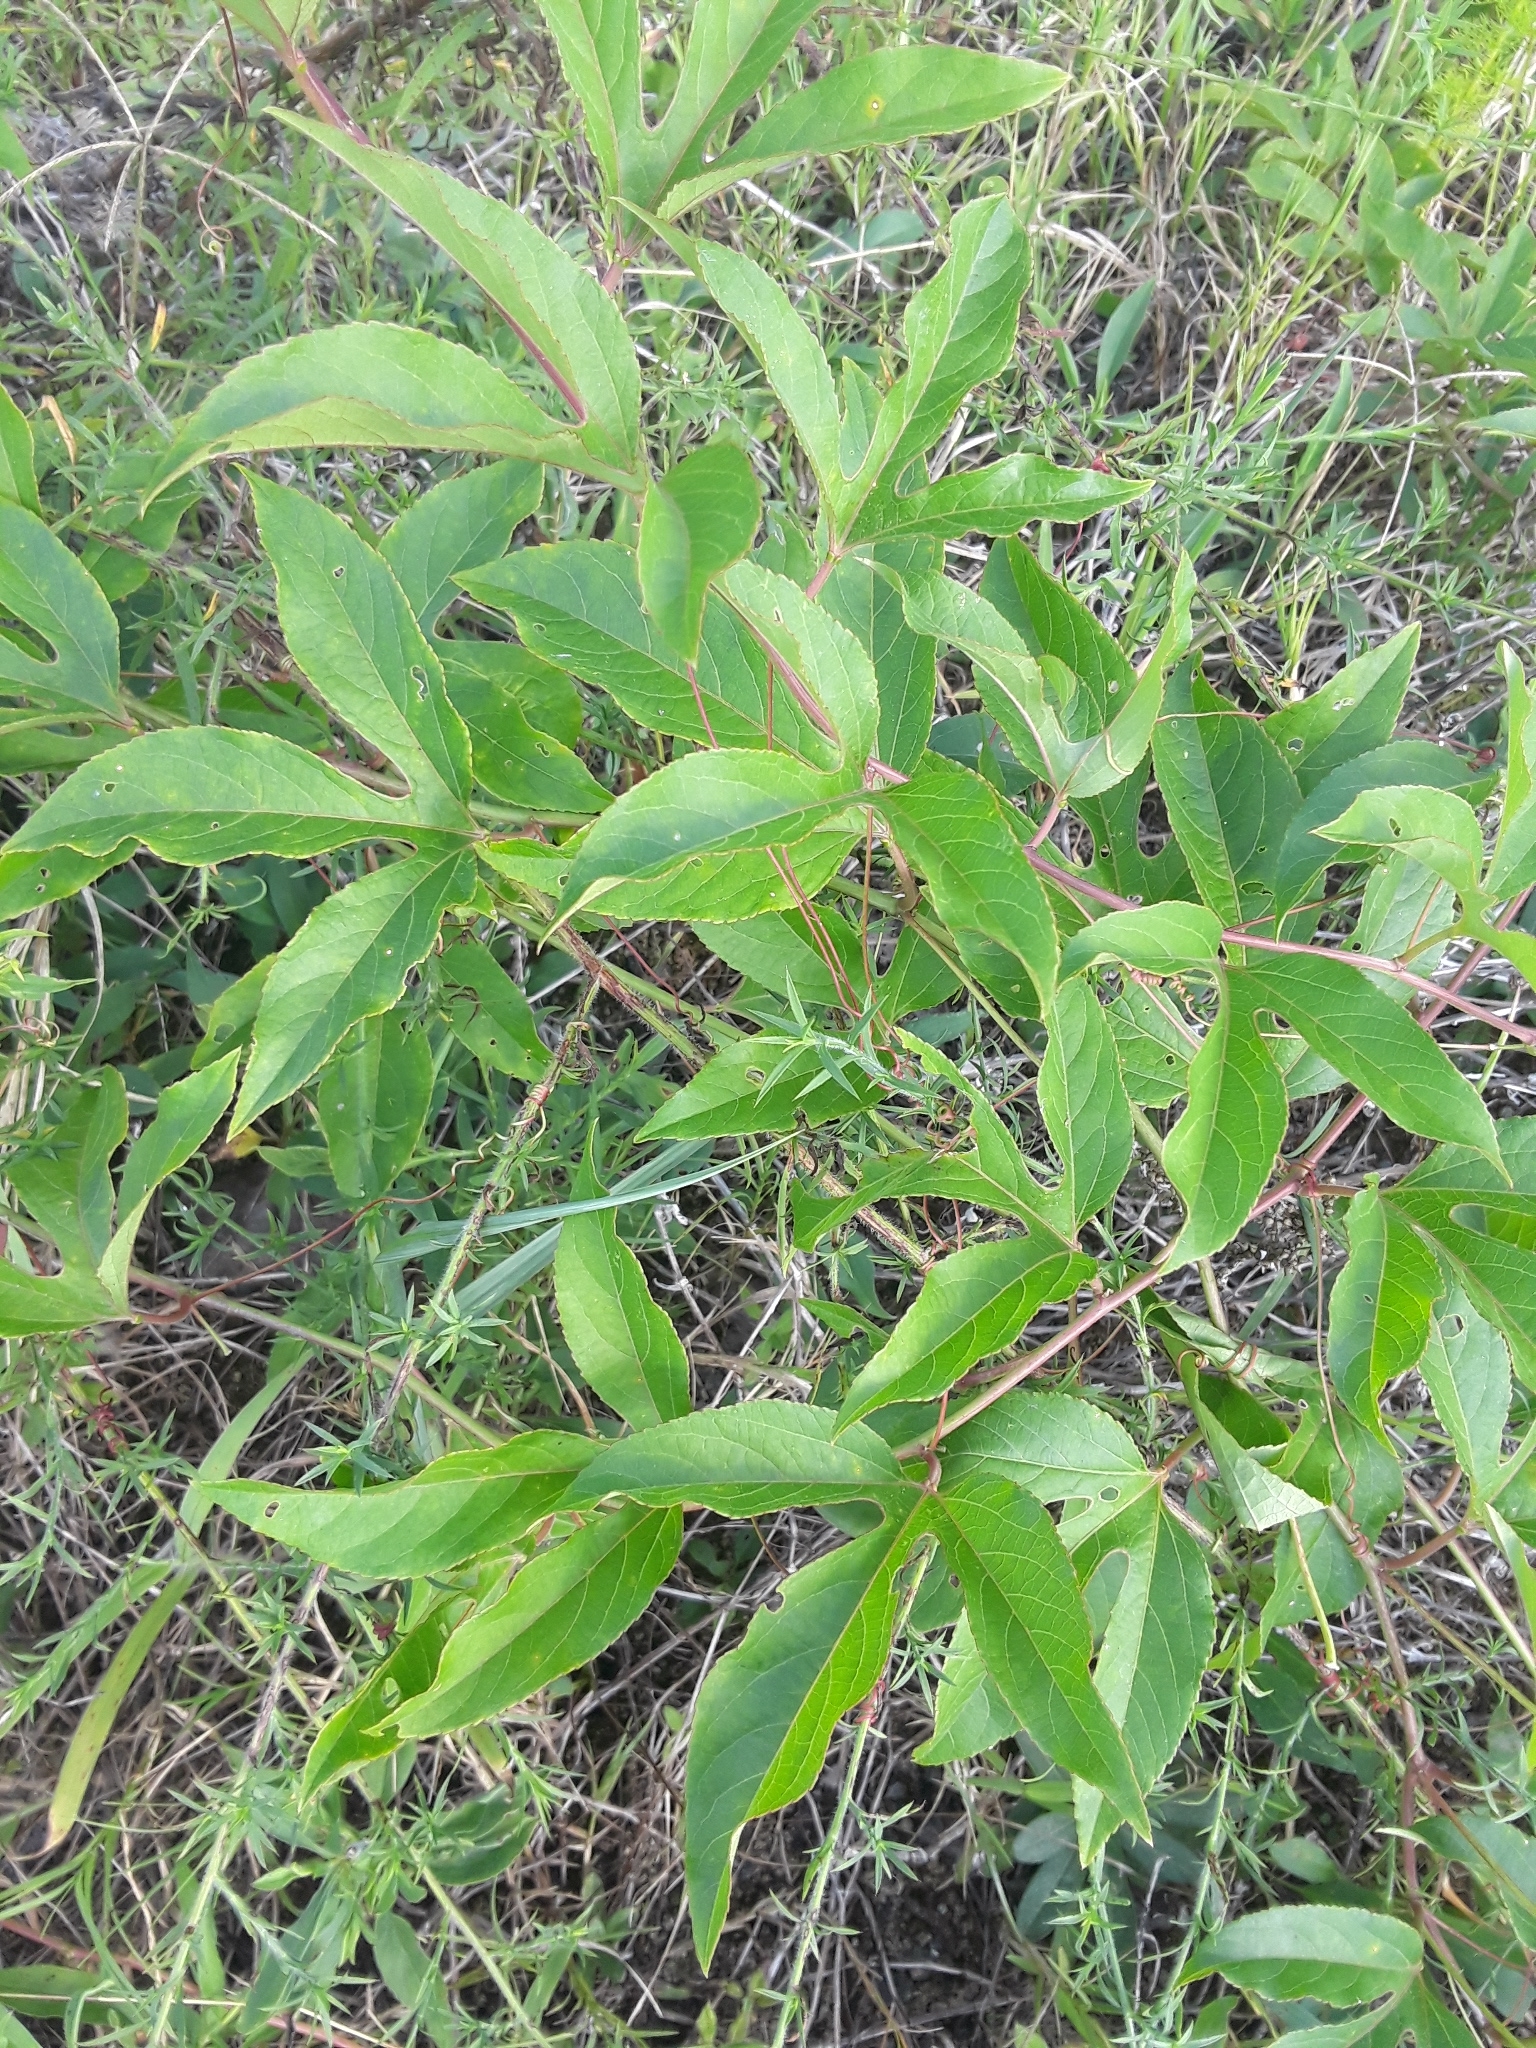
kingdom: Plantae
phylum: Tracheophyta
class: Magnoliopsida
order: Malpighiales
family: Passifloraceae
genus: Passiflora
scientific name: Passiflora incarnata
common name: Apricot-vine
